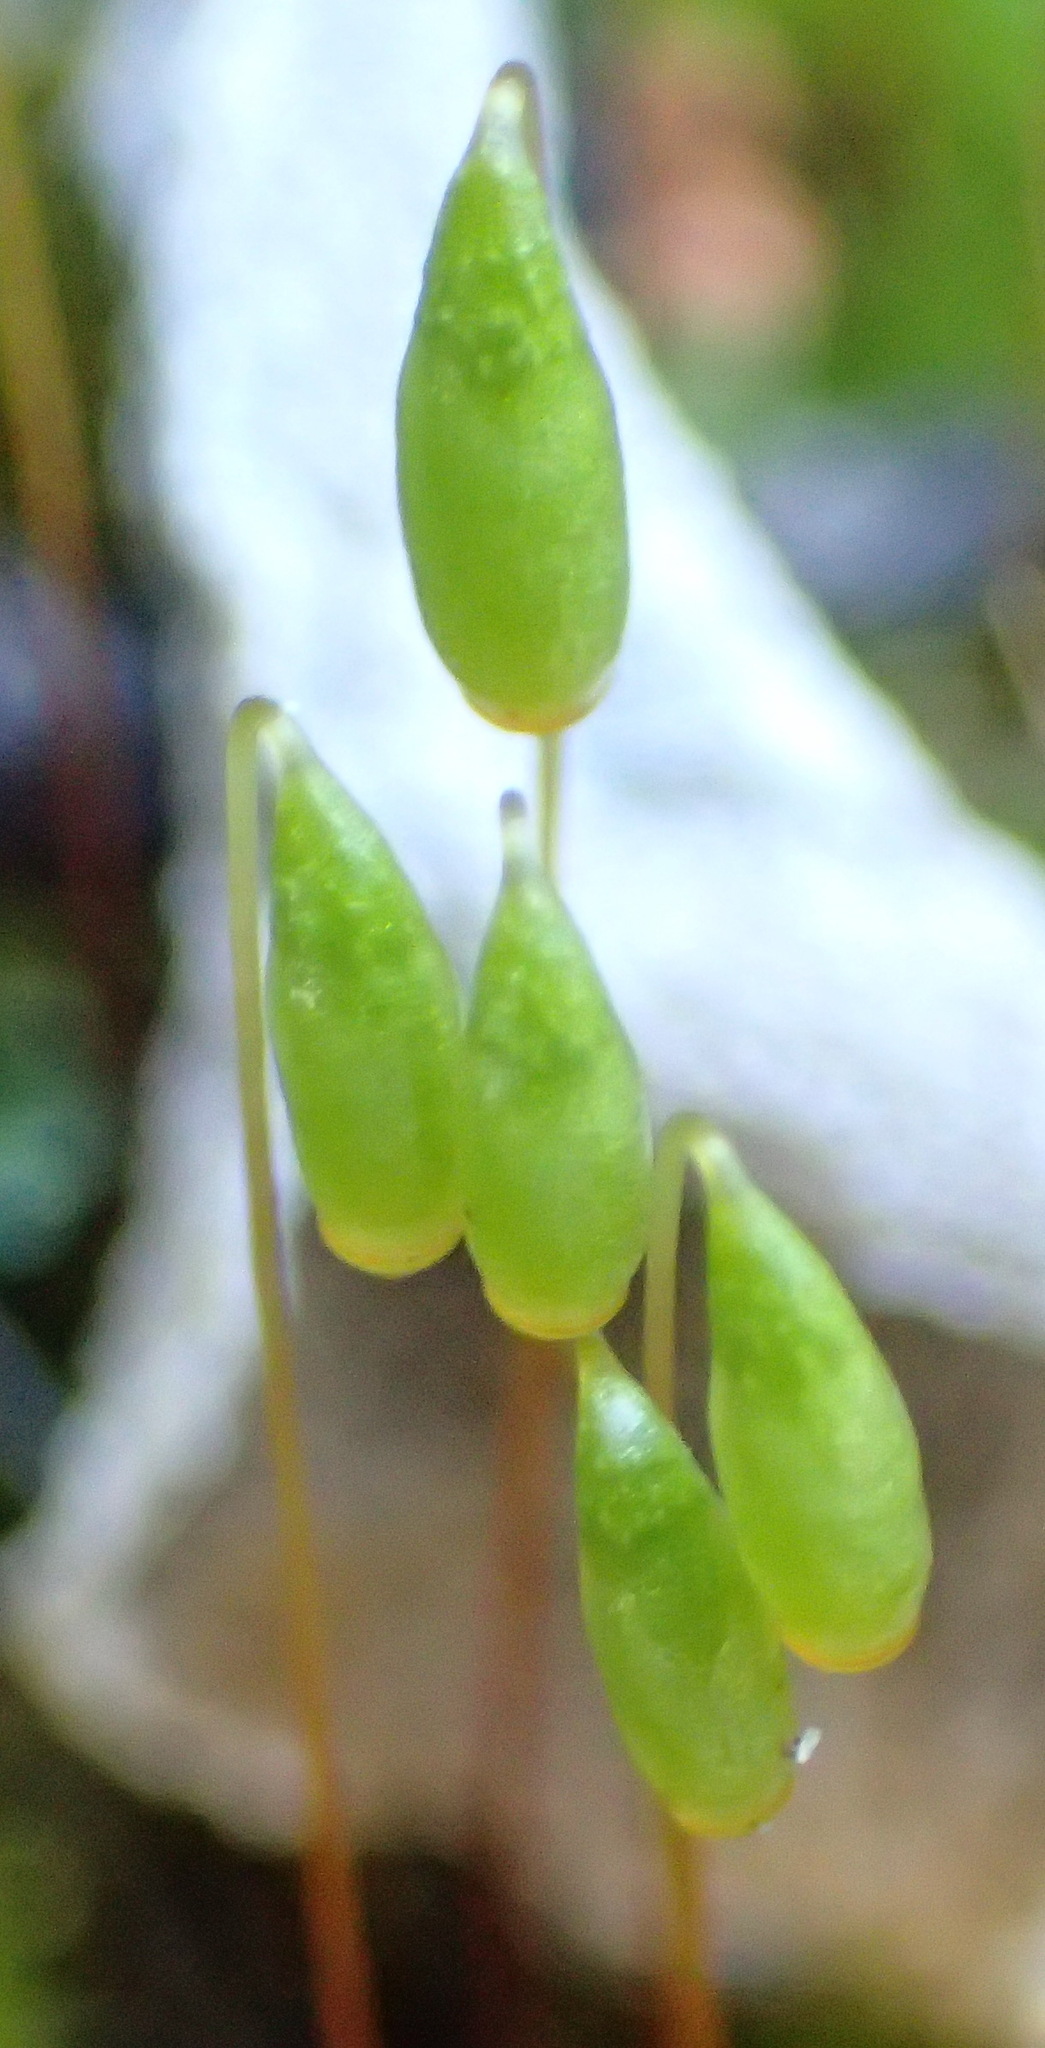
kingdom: Plantae
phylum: Bryophyta
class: Bryopsida
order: Bryales
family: Bryaceae
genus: Rosulabryum
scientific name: Rosulabryum canariense
